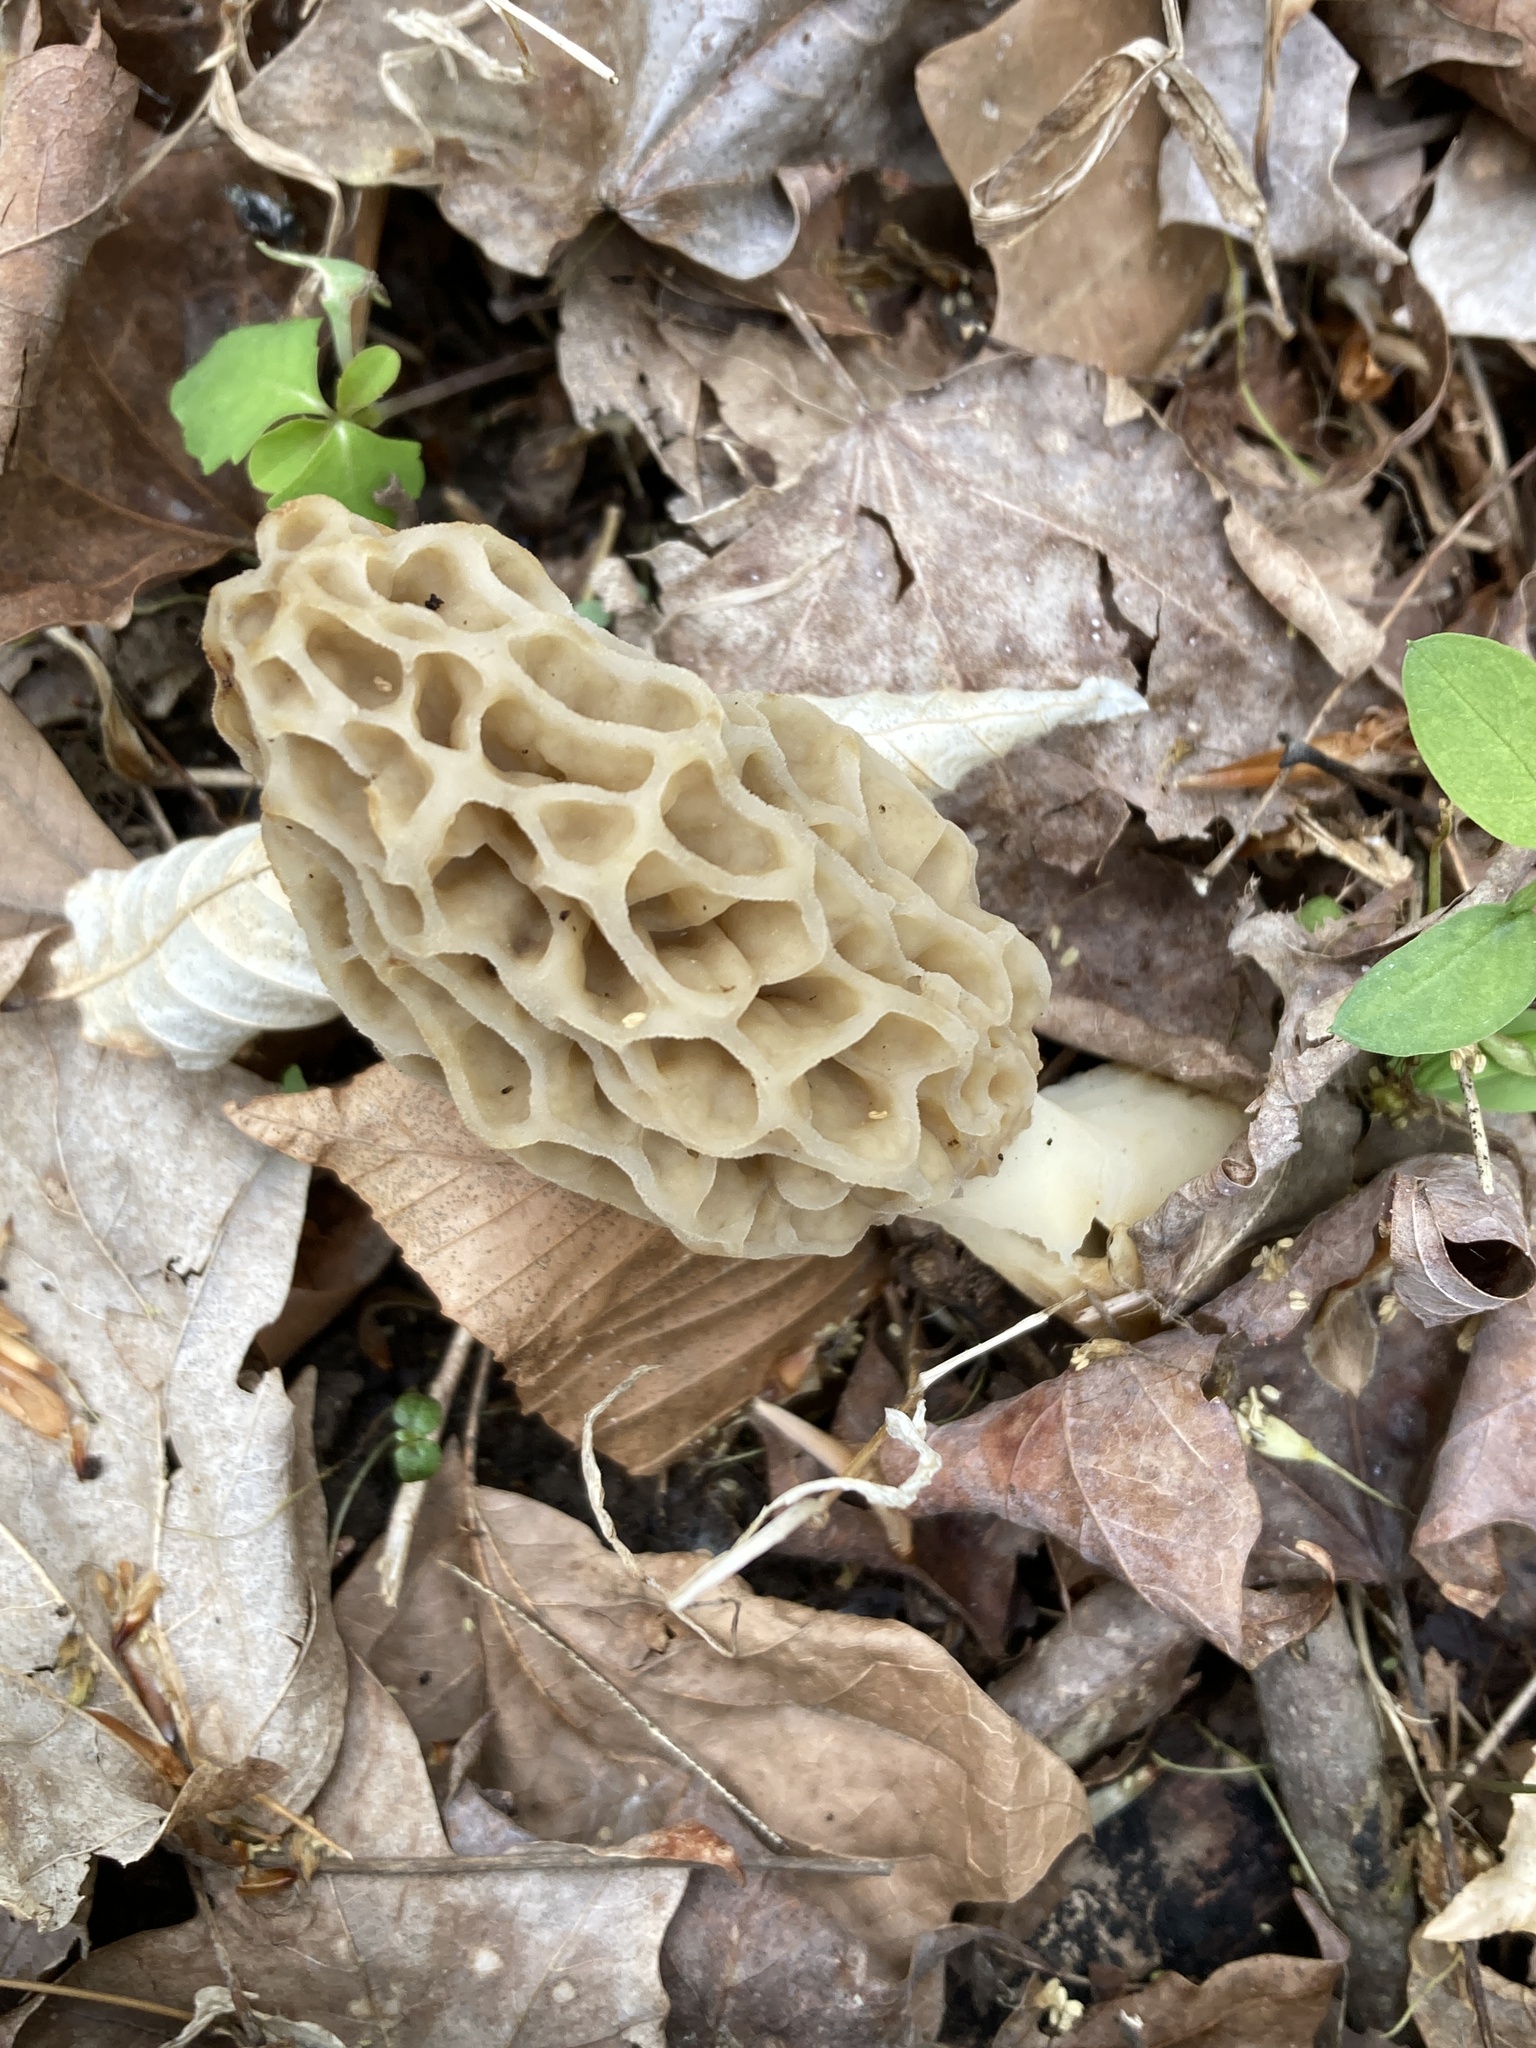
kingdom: Fungi
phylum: Ascomycota
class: Pezizomycetes
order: Pezizales
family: Morchellaceae
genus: Morchella
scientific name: Morchella americana
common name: White morel
